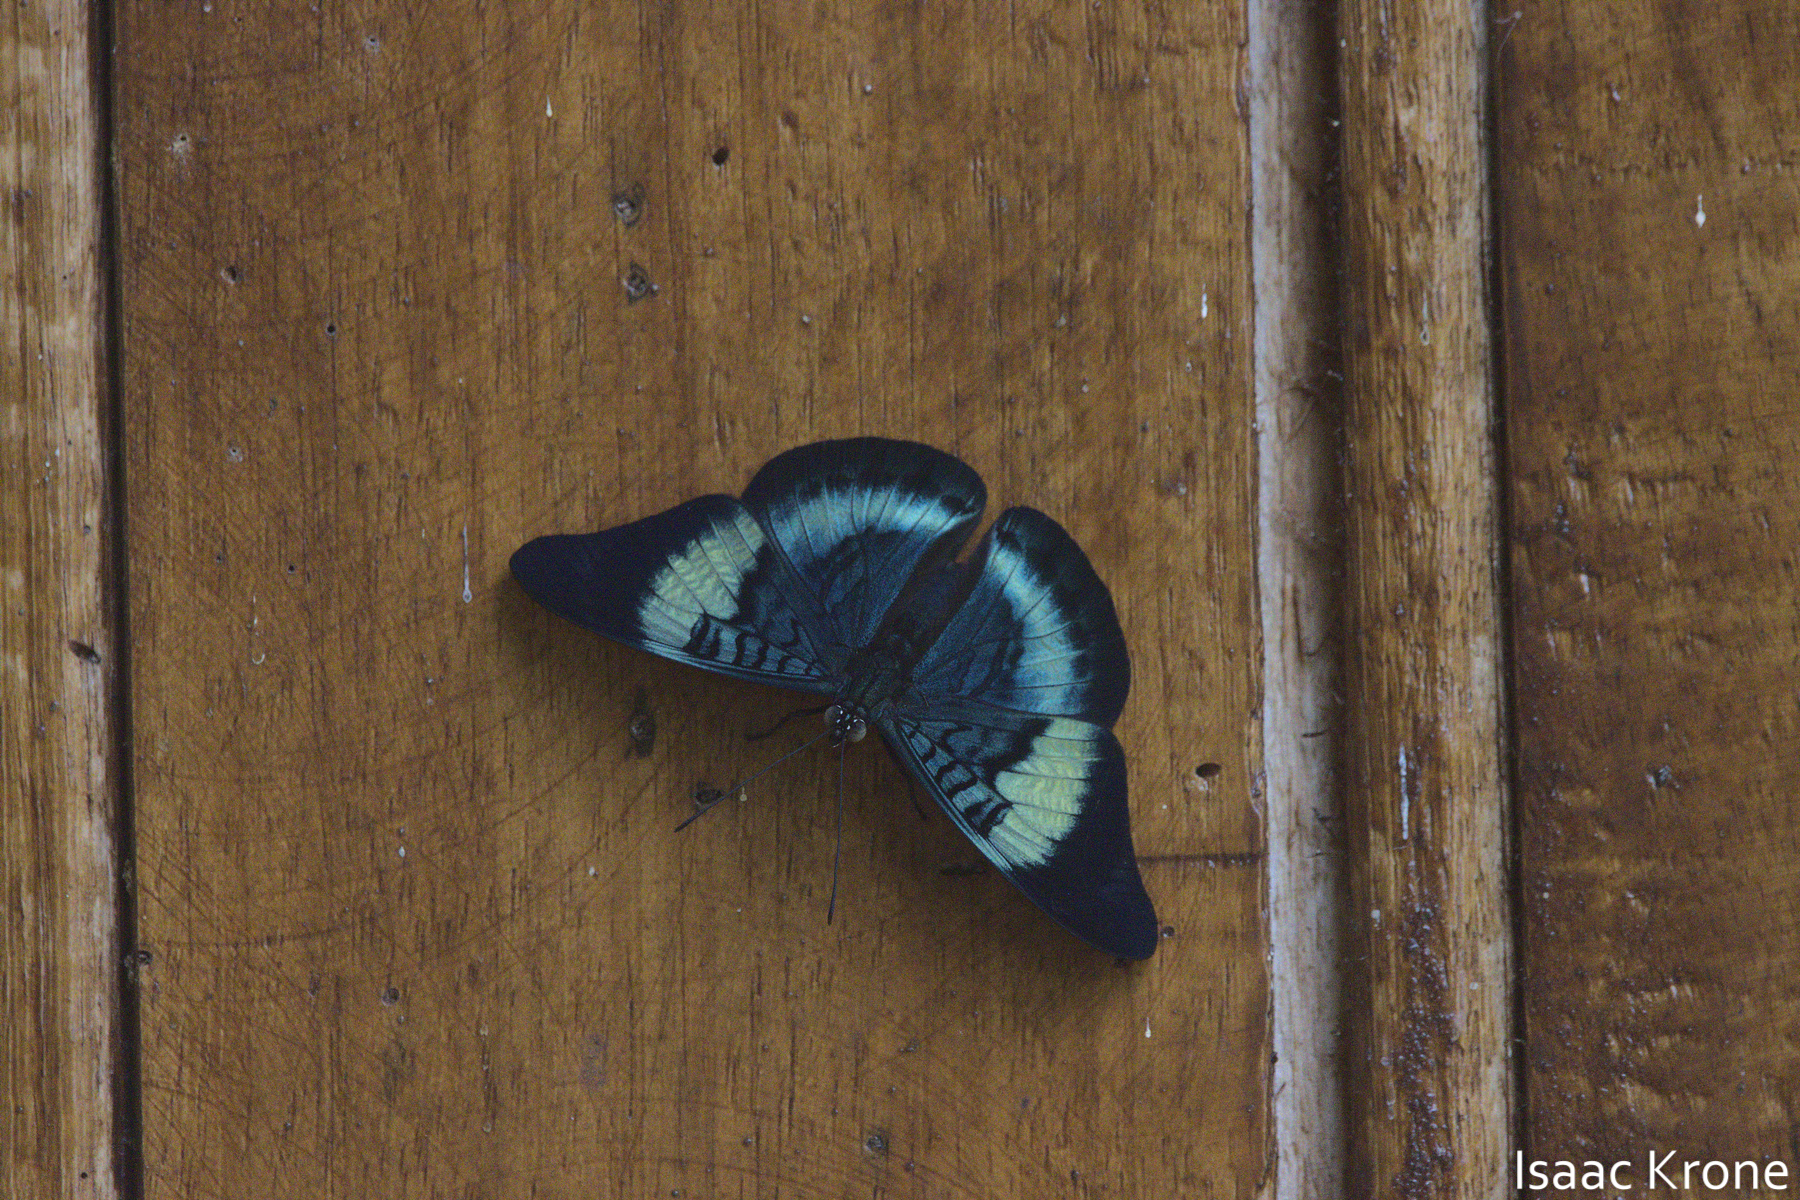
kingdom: Animalia
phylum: Arthropoda
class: Insecta
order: Lepidoptera
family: Nymphalidae
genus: Panacea
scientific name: Panacea prola
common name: Red flasher
